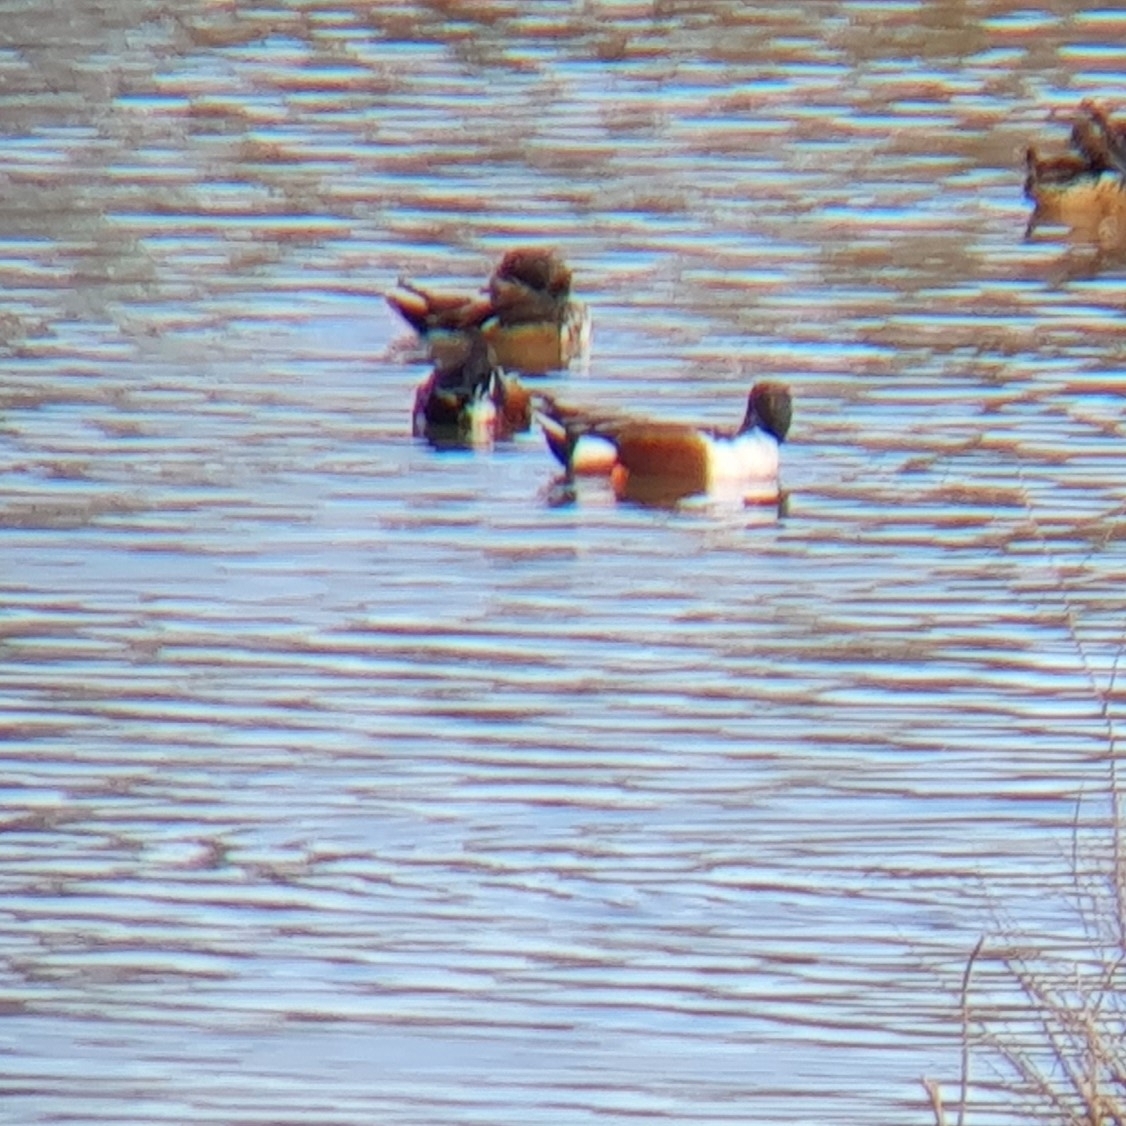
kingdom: Animalia
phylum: Chordata
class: Aves
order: Anseriformes
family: Anatidae
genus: Spatula
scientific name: Spatula clypeata
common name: Northern shoveler
